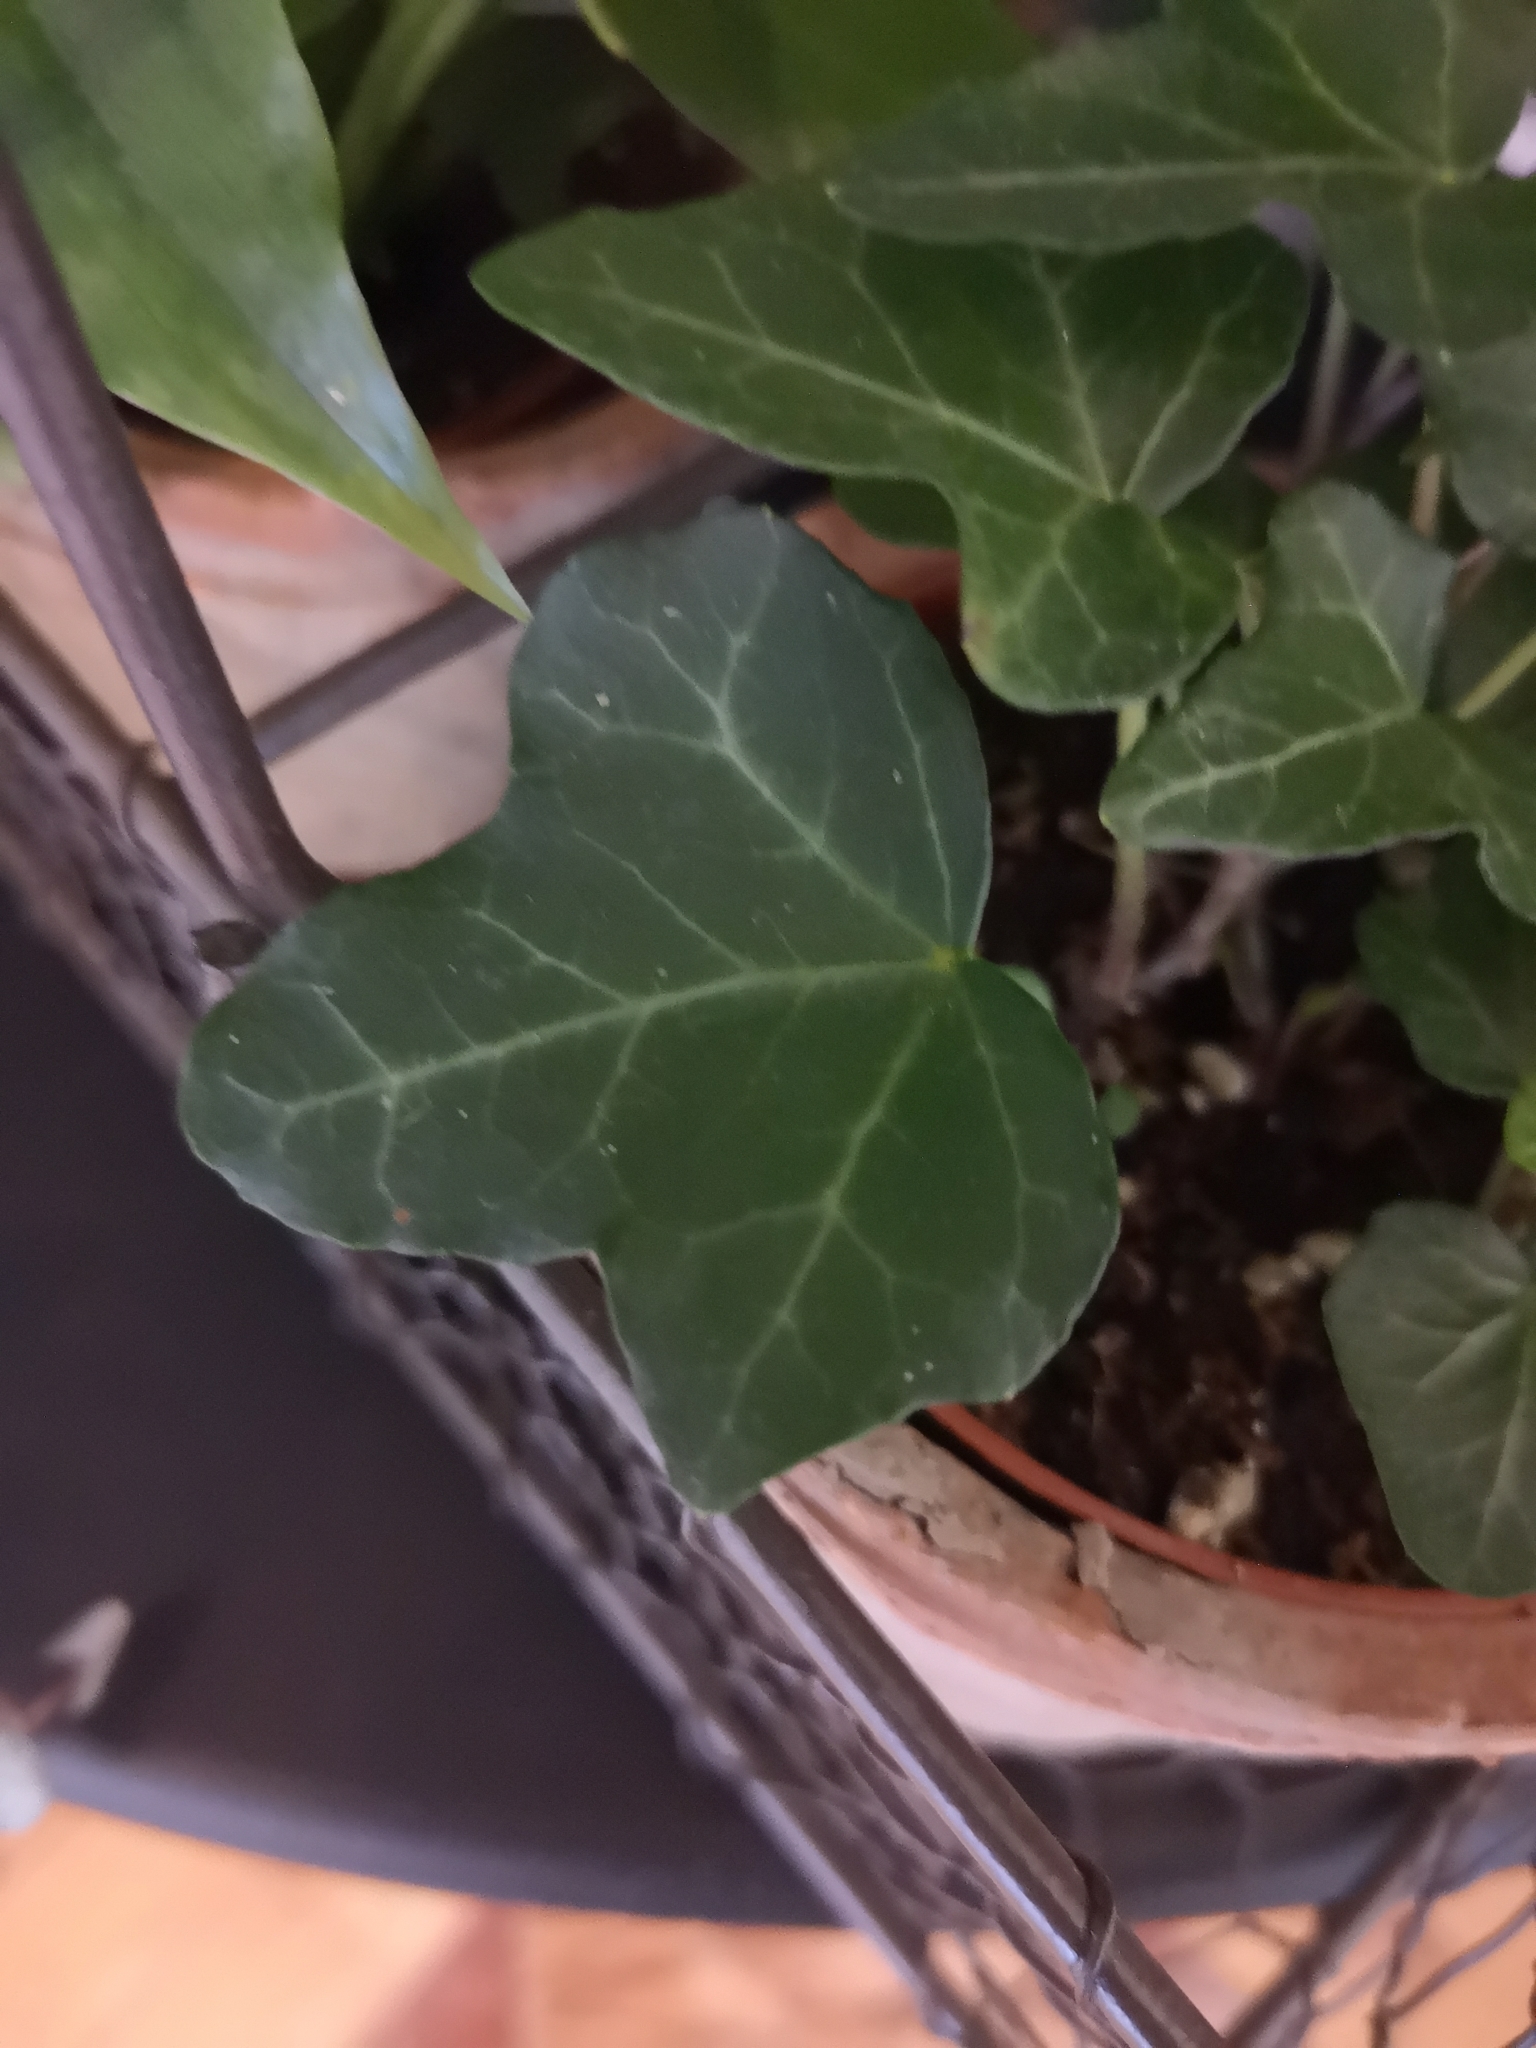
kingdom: Plantae
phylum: Tracheophyta
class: Magnoliopsida
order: Apiales
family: Araliaceae
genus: Hedera
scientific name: Hedera helix
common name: Ivy
